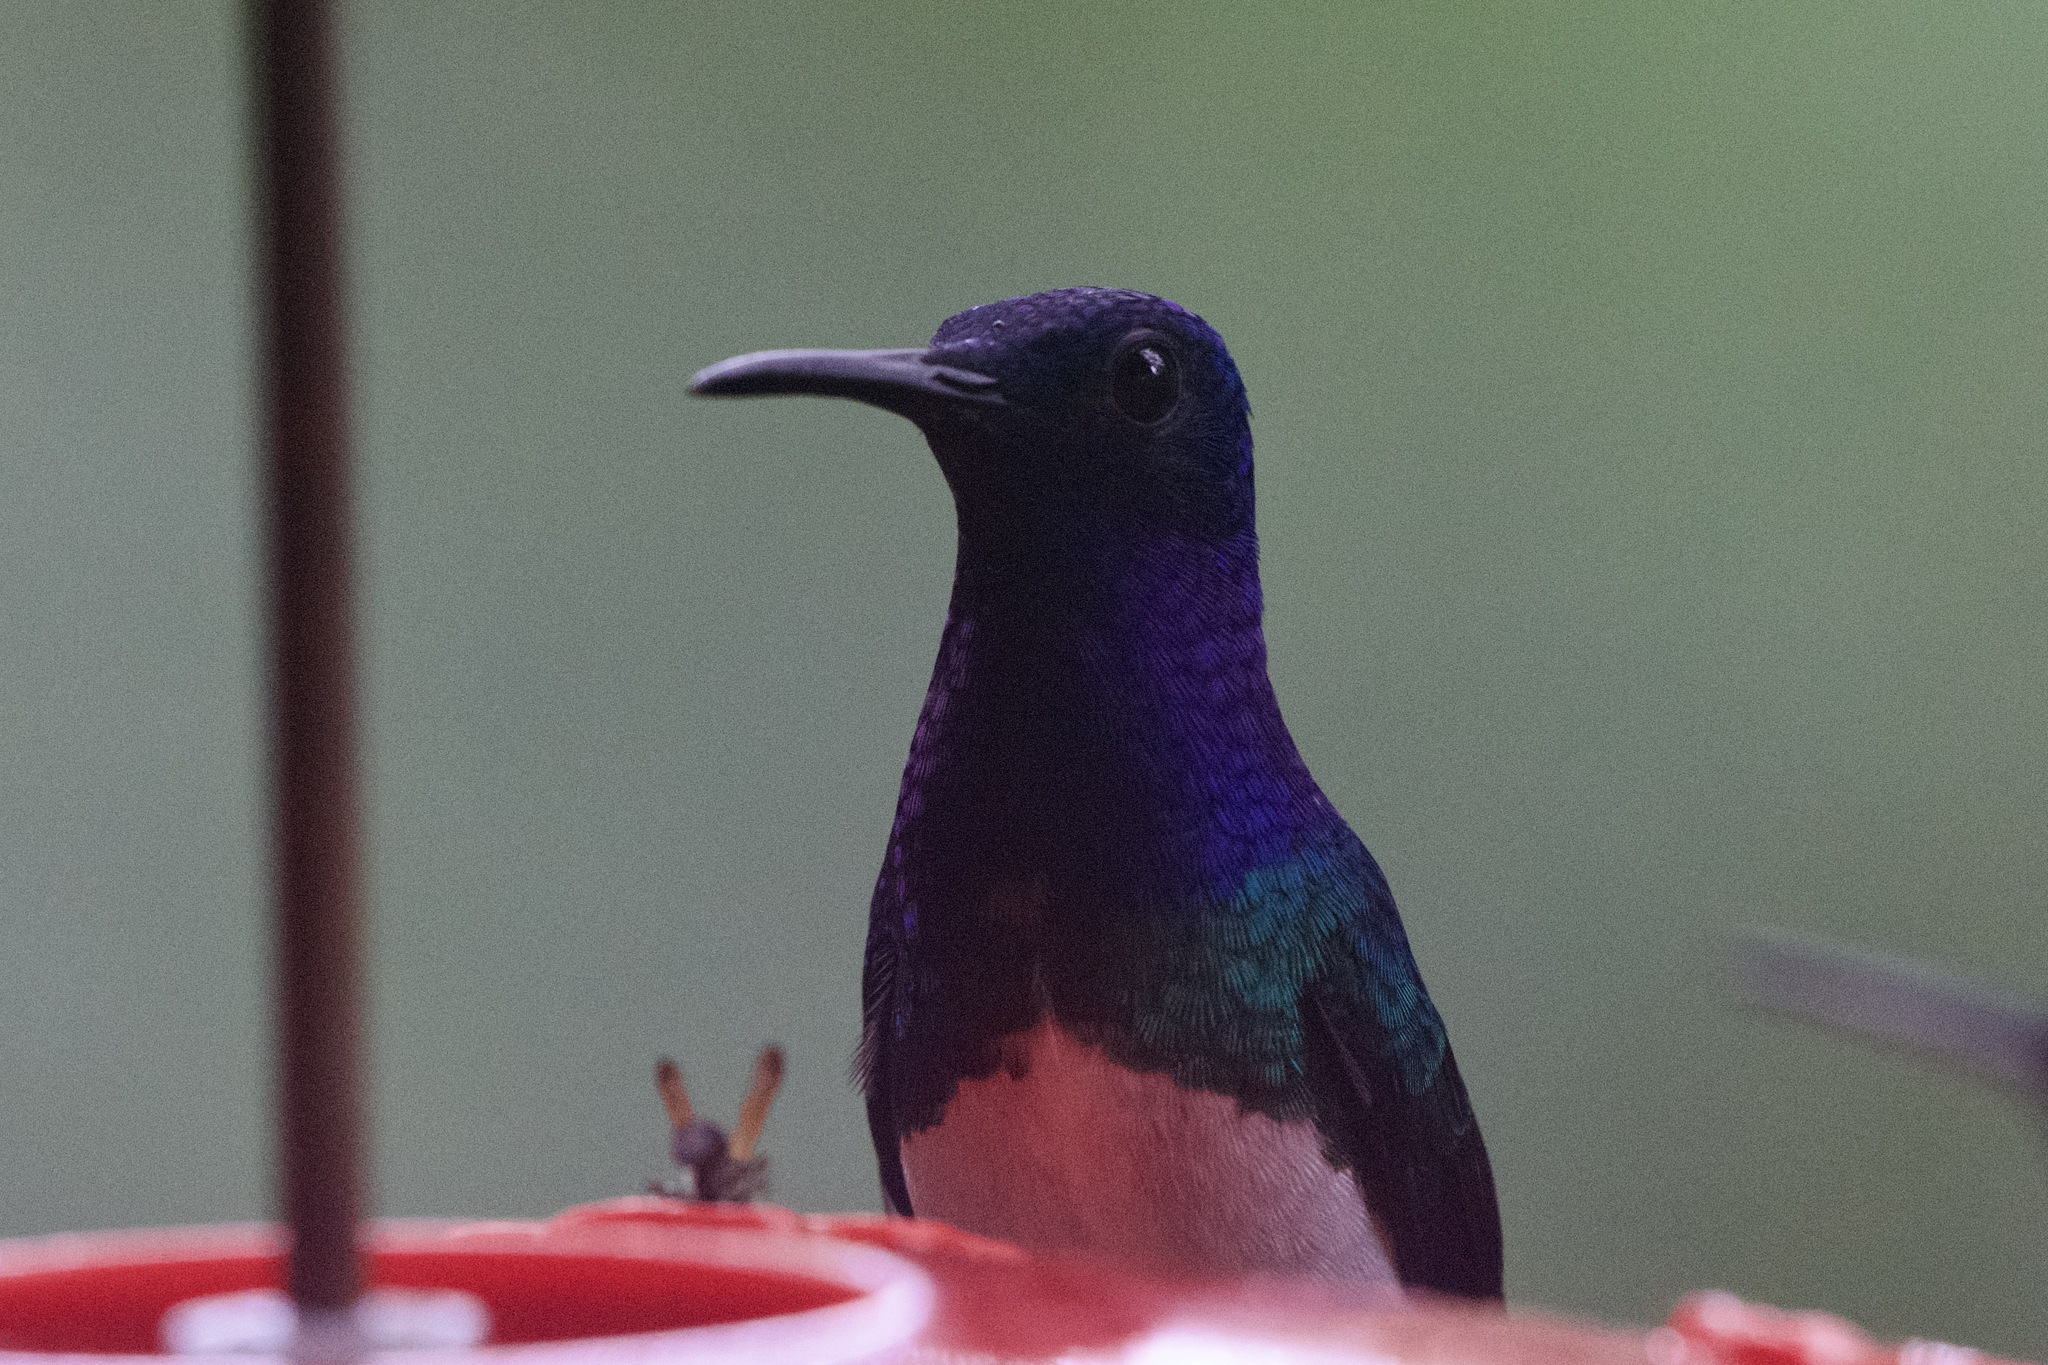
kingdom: Animalia
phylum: Chordata
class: Aves
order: Apodiformes
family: Trochilidae
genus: Florisuga
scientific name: Florisuga mellivora
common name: White-necked jacobin
